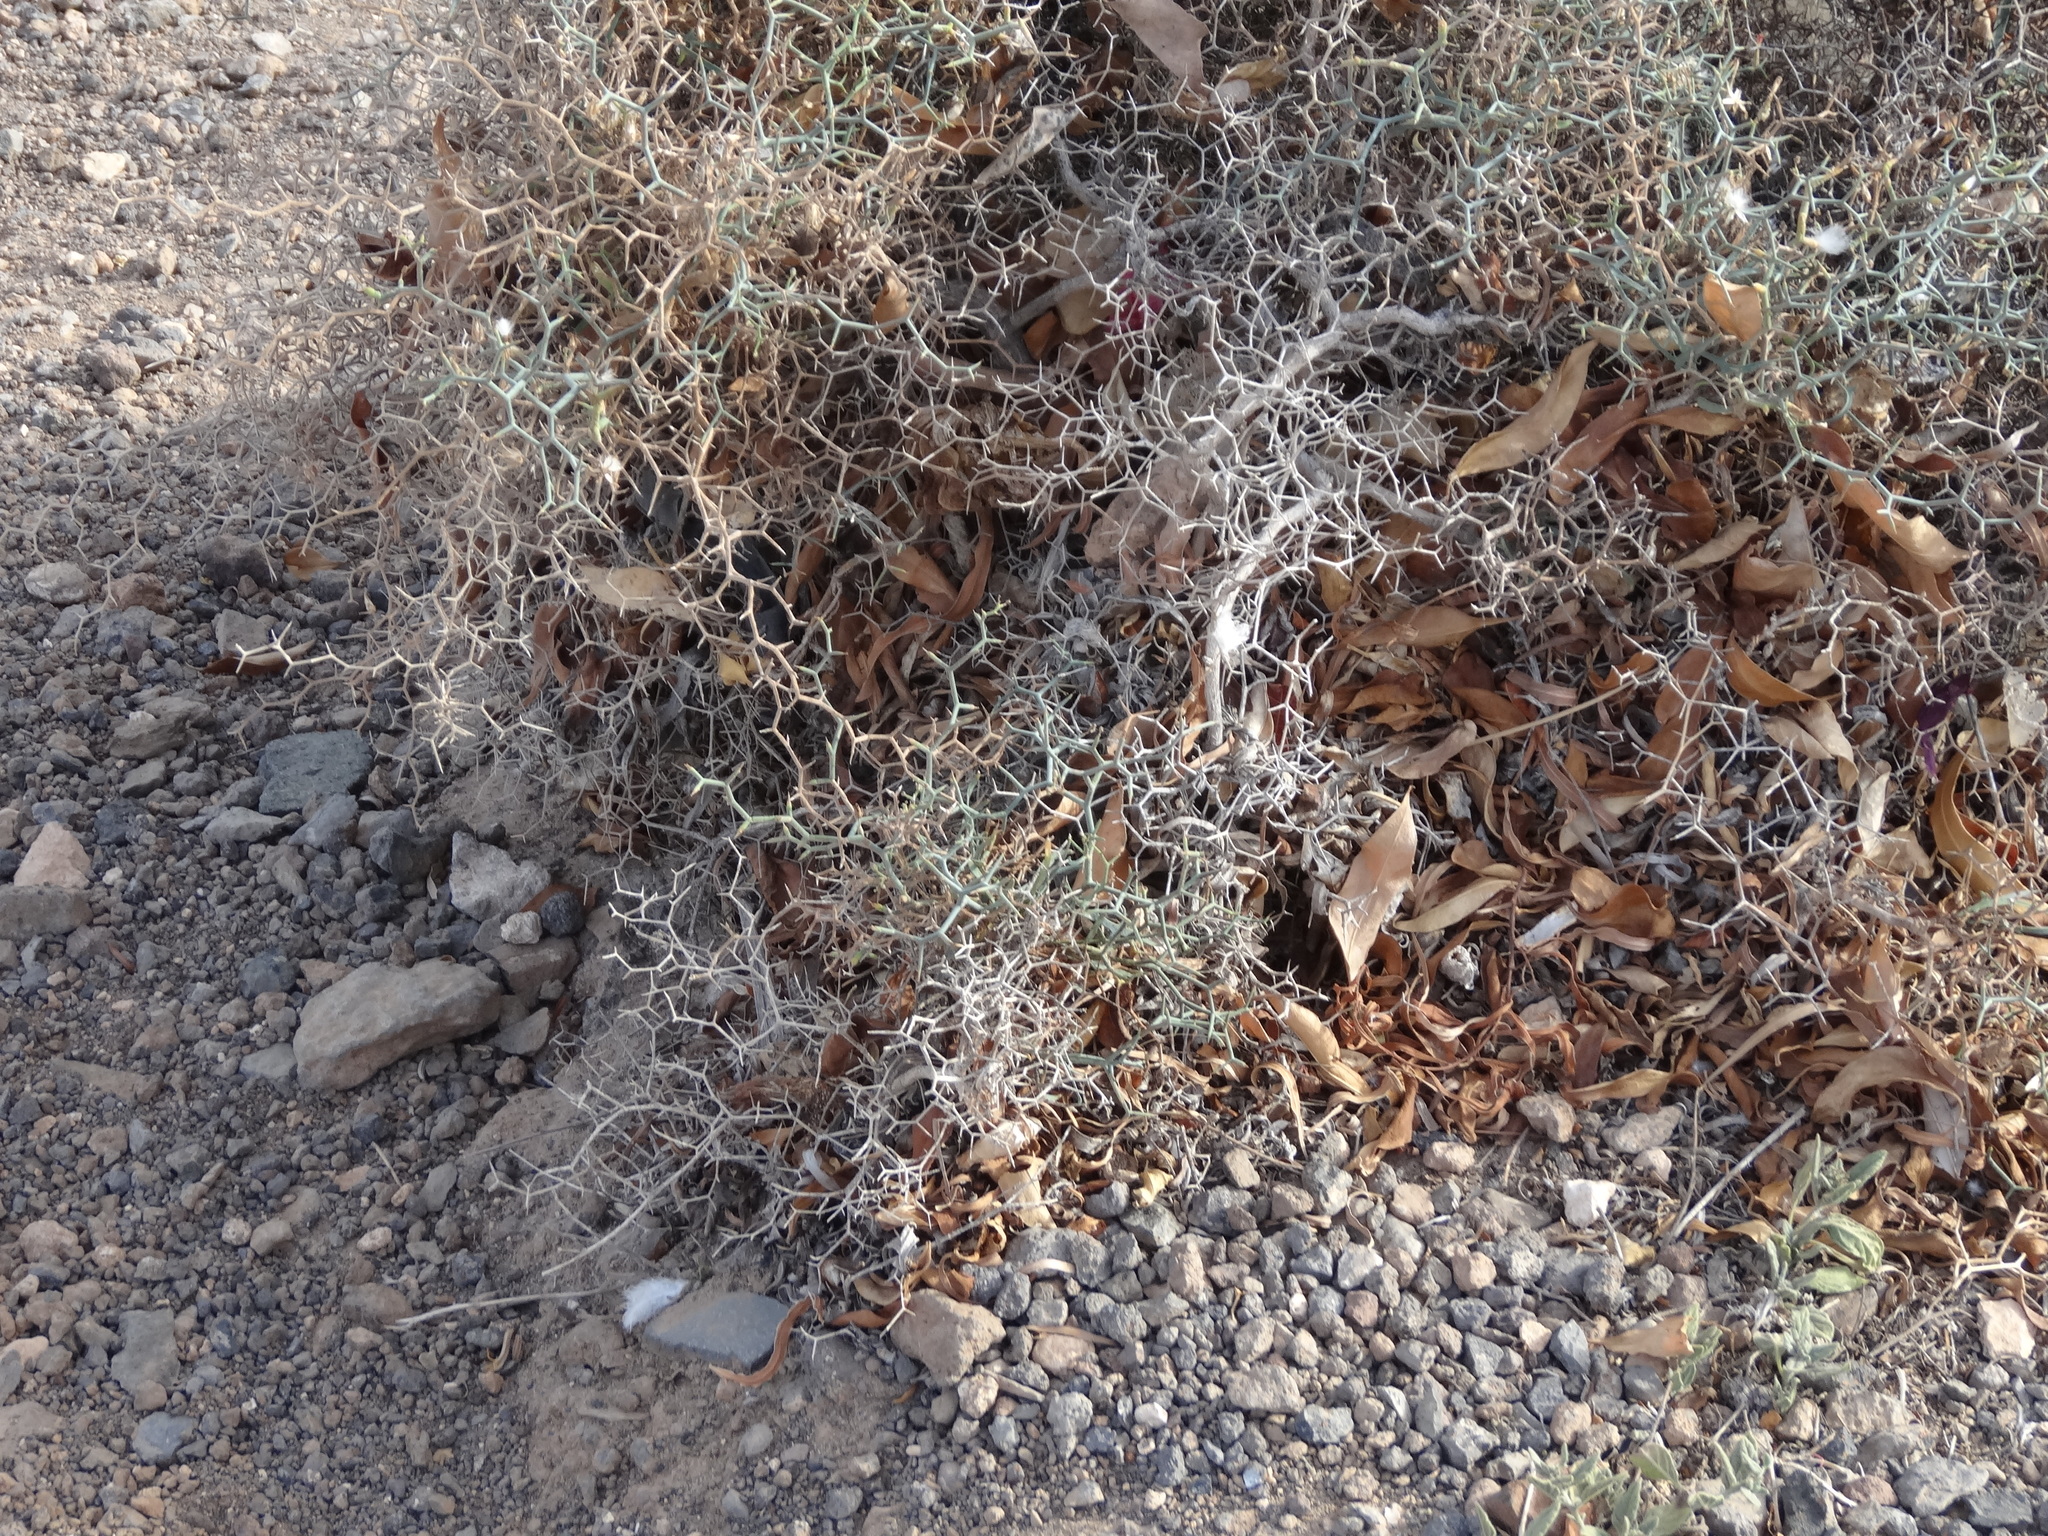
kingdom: Plantae
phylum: Tracheophyta
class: Magnoliopsida
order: Asterales
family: Asteraceae
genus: Launaea
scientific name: Launaea arborescens
